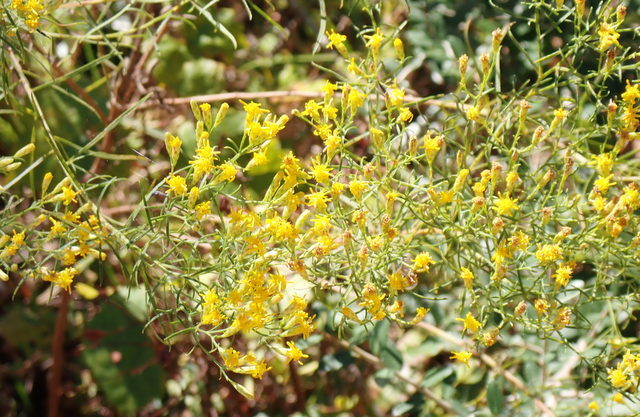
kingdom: Plantae
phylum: Tracheophyta
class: Magnoliopsida
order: Asterales
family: Asteraceae
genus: Euthamia
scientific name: Euthamia caroliniana
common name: Coastal plain goldentop
